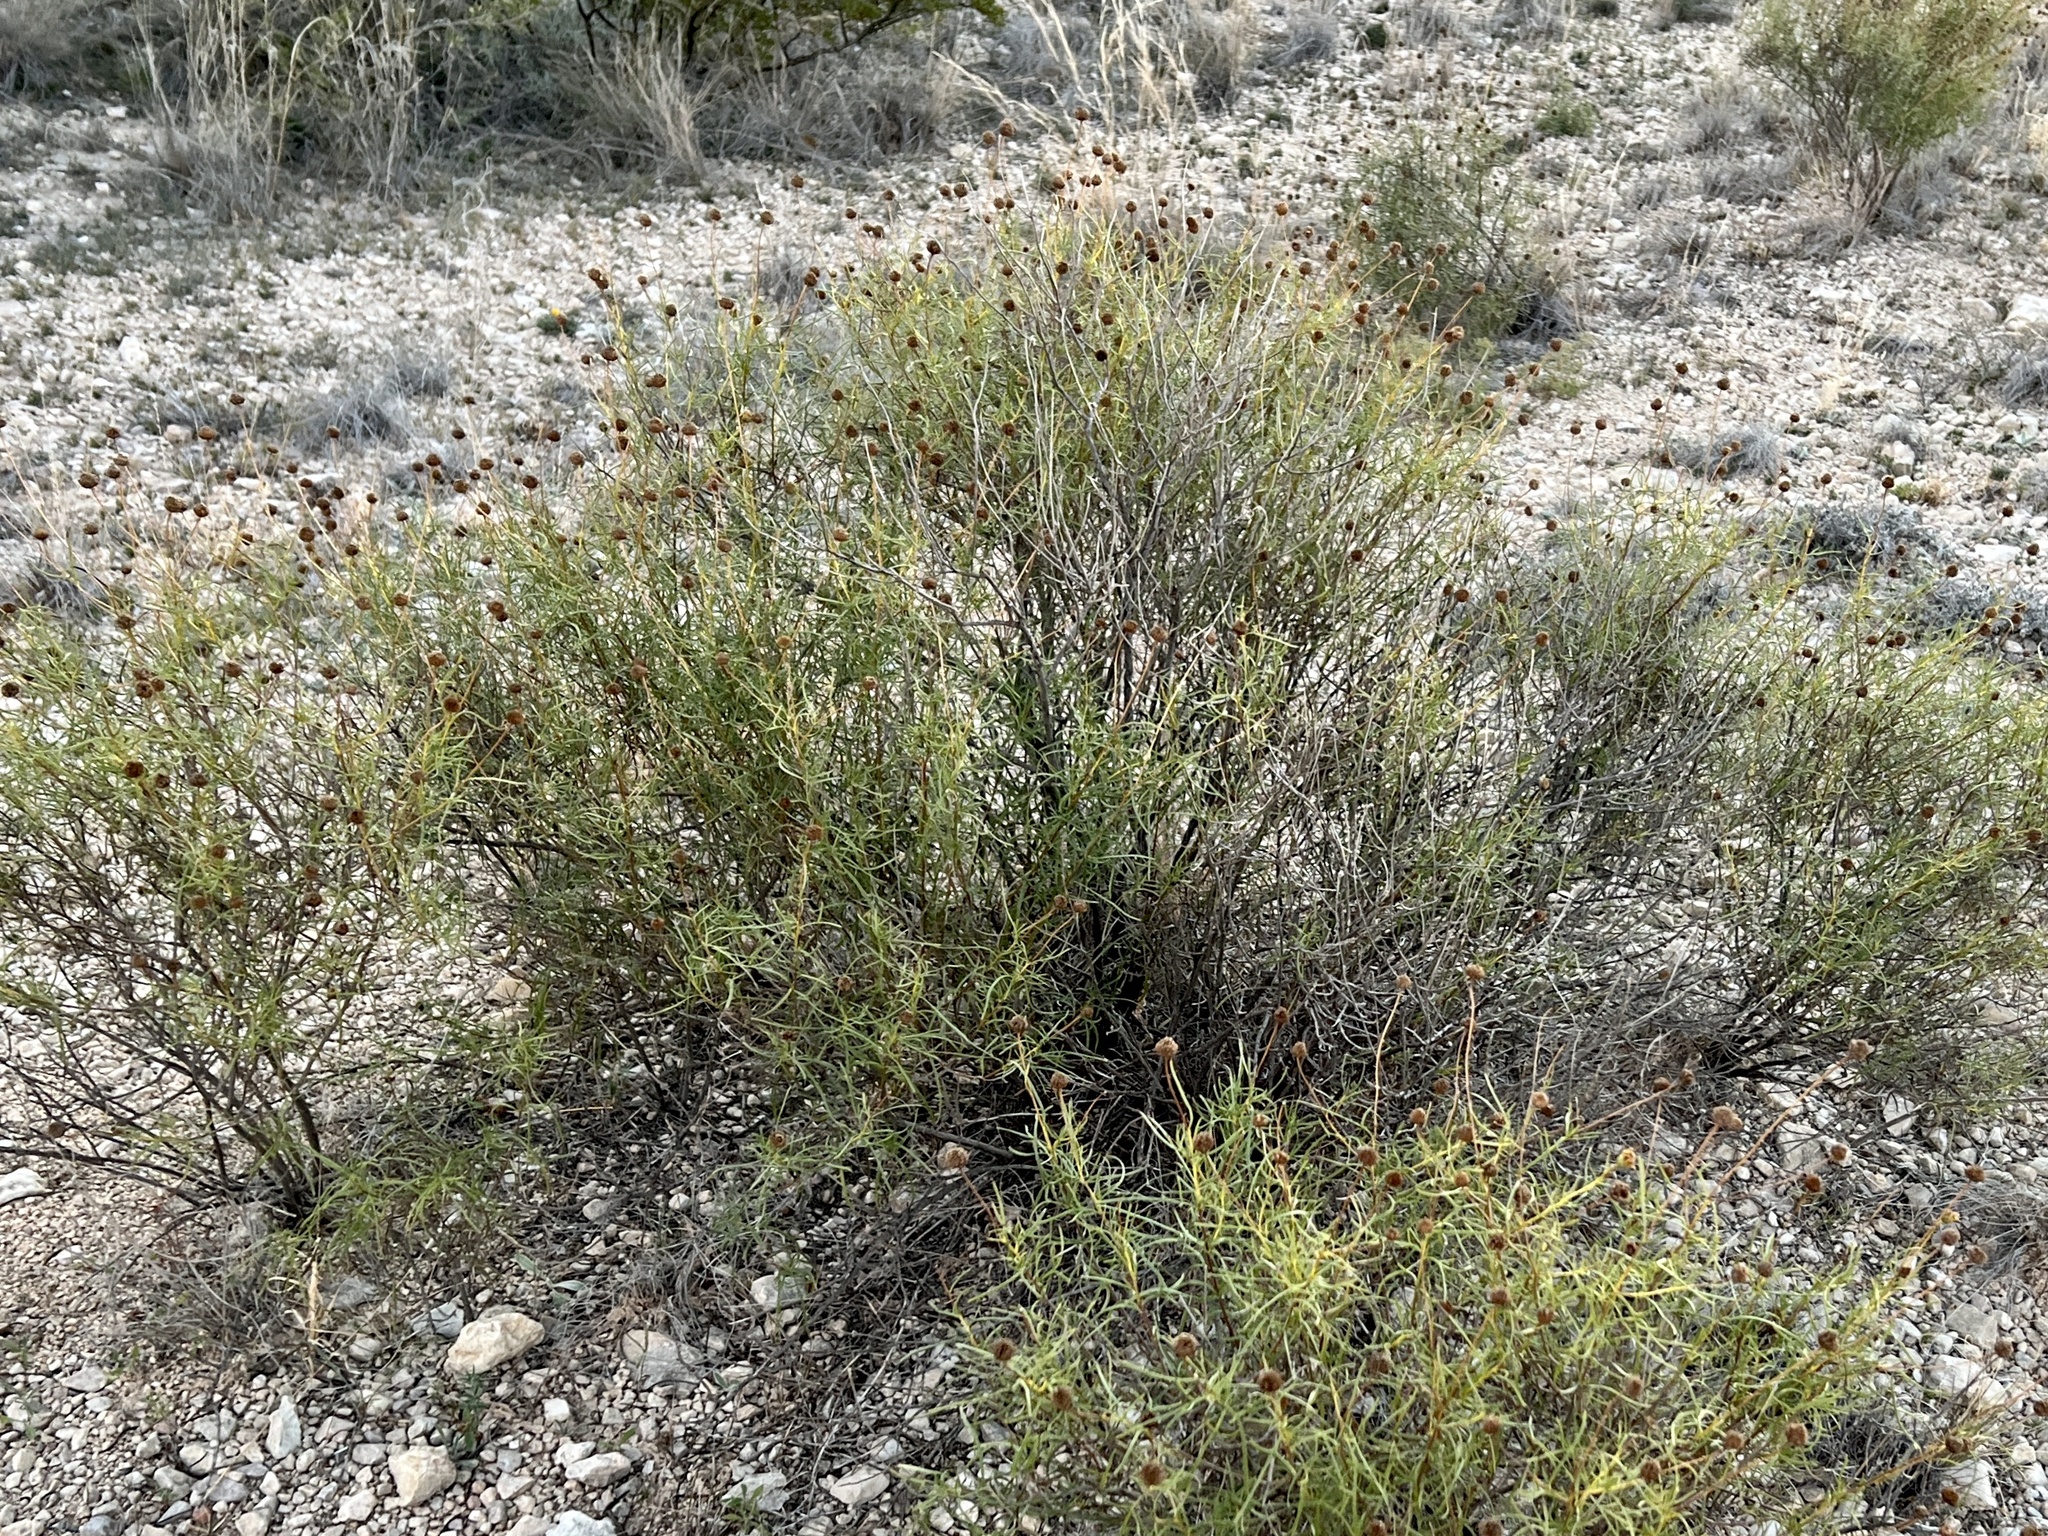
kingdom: Plantae
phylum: Tracheophyta
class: Magnoliopsida
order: Asterales
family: Asteraceae
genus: Sidneya
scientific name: Sidneya tenuifolia
